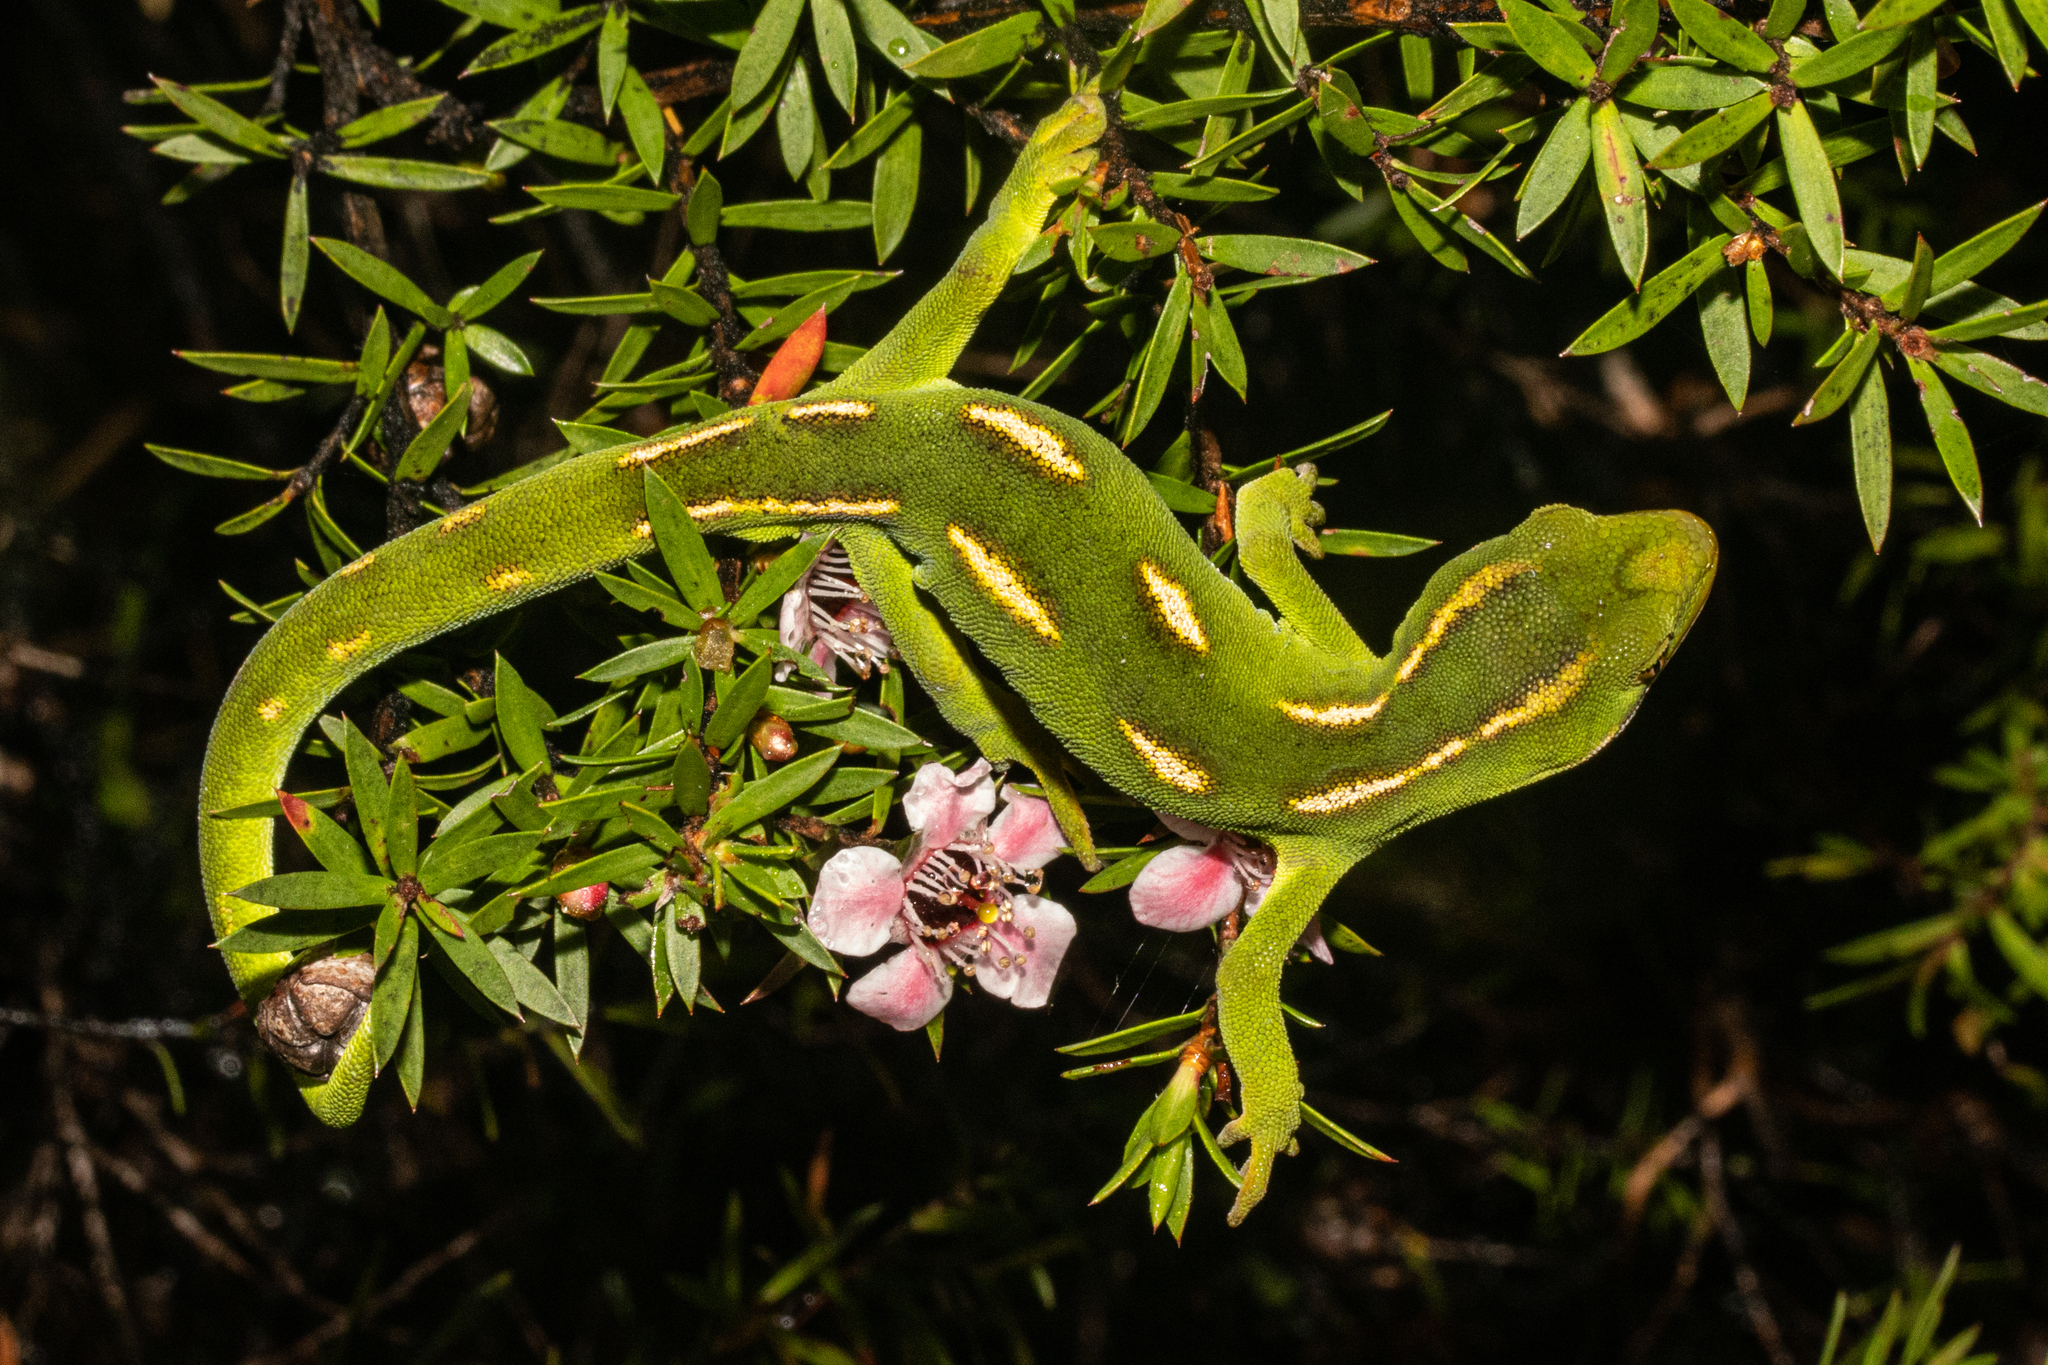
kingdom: Animalia
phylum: Chordata
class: Squamata
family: Diplodactylidae
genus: Naultinus
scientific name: Naultinus flavirictus
